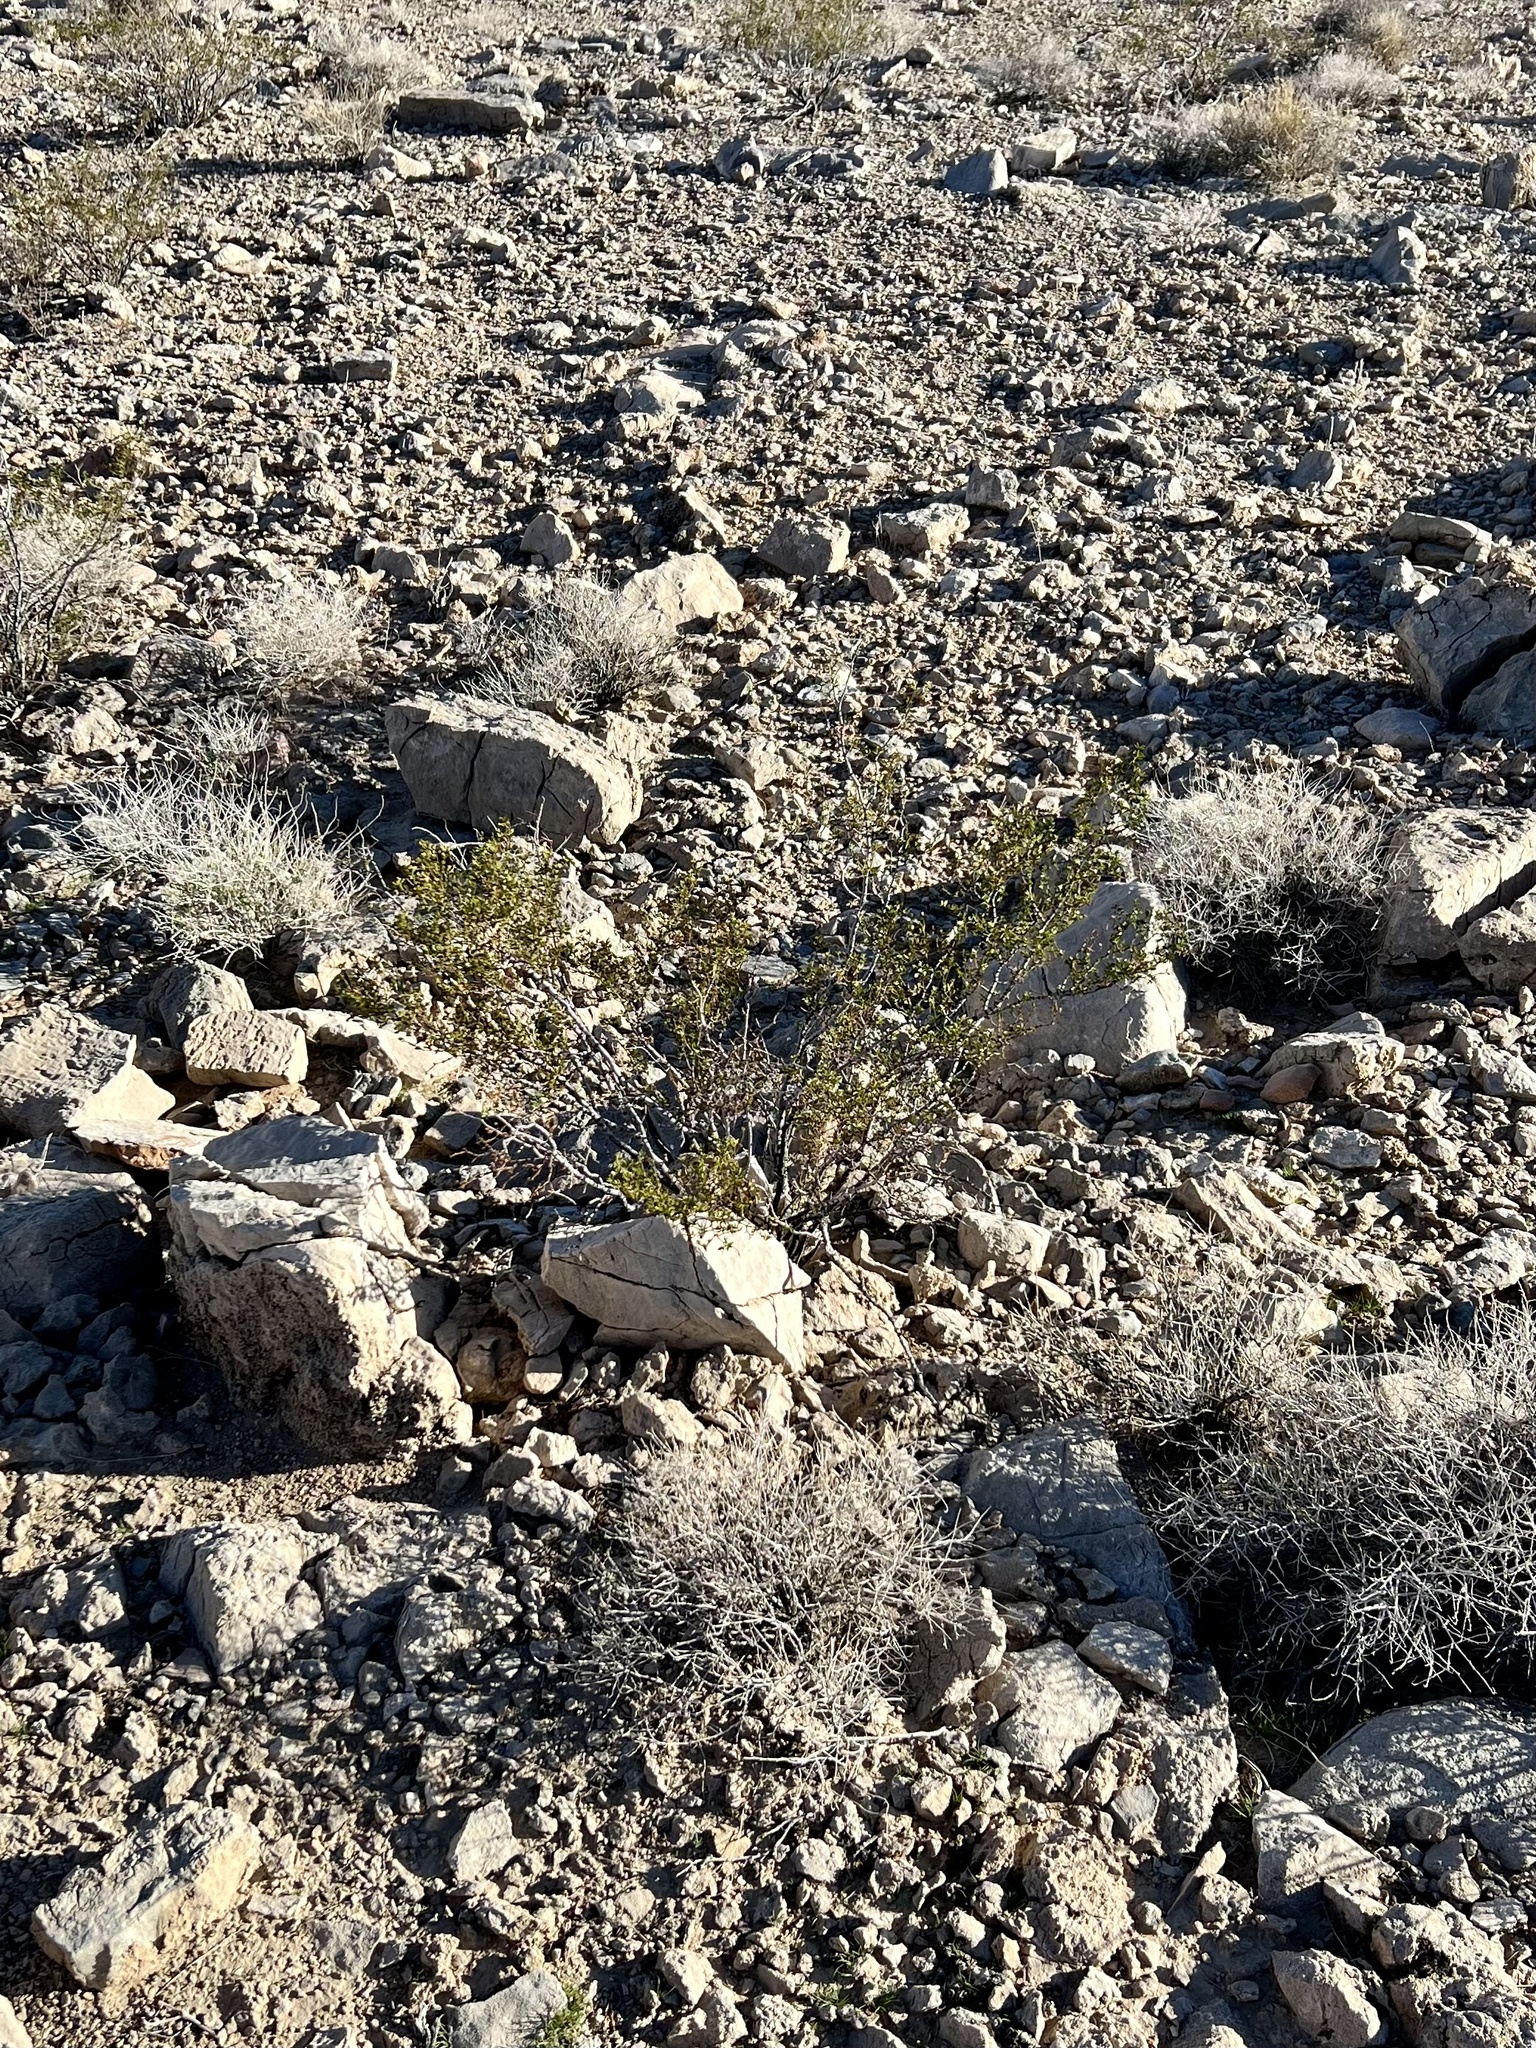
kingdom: Plantae
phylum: Tracheophyta
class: Magnoliopsida
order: Zygophyllales
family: Zygophyllaceae
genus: Larrea
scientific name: Larrea tridentata
